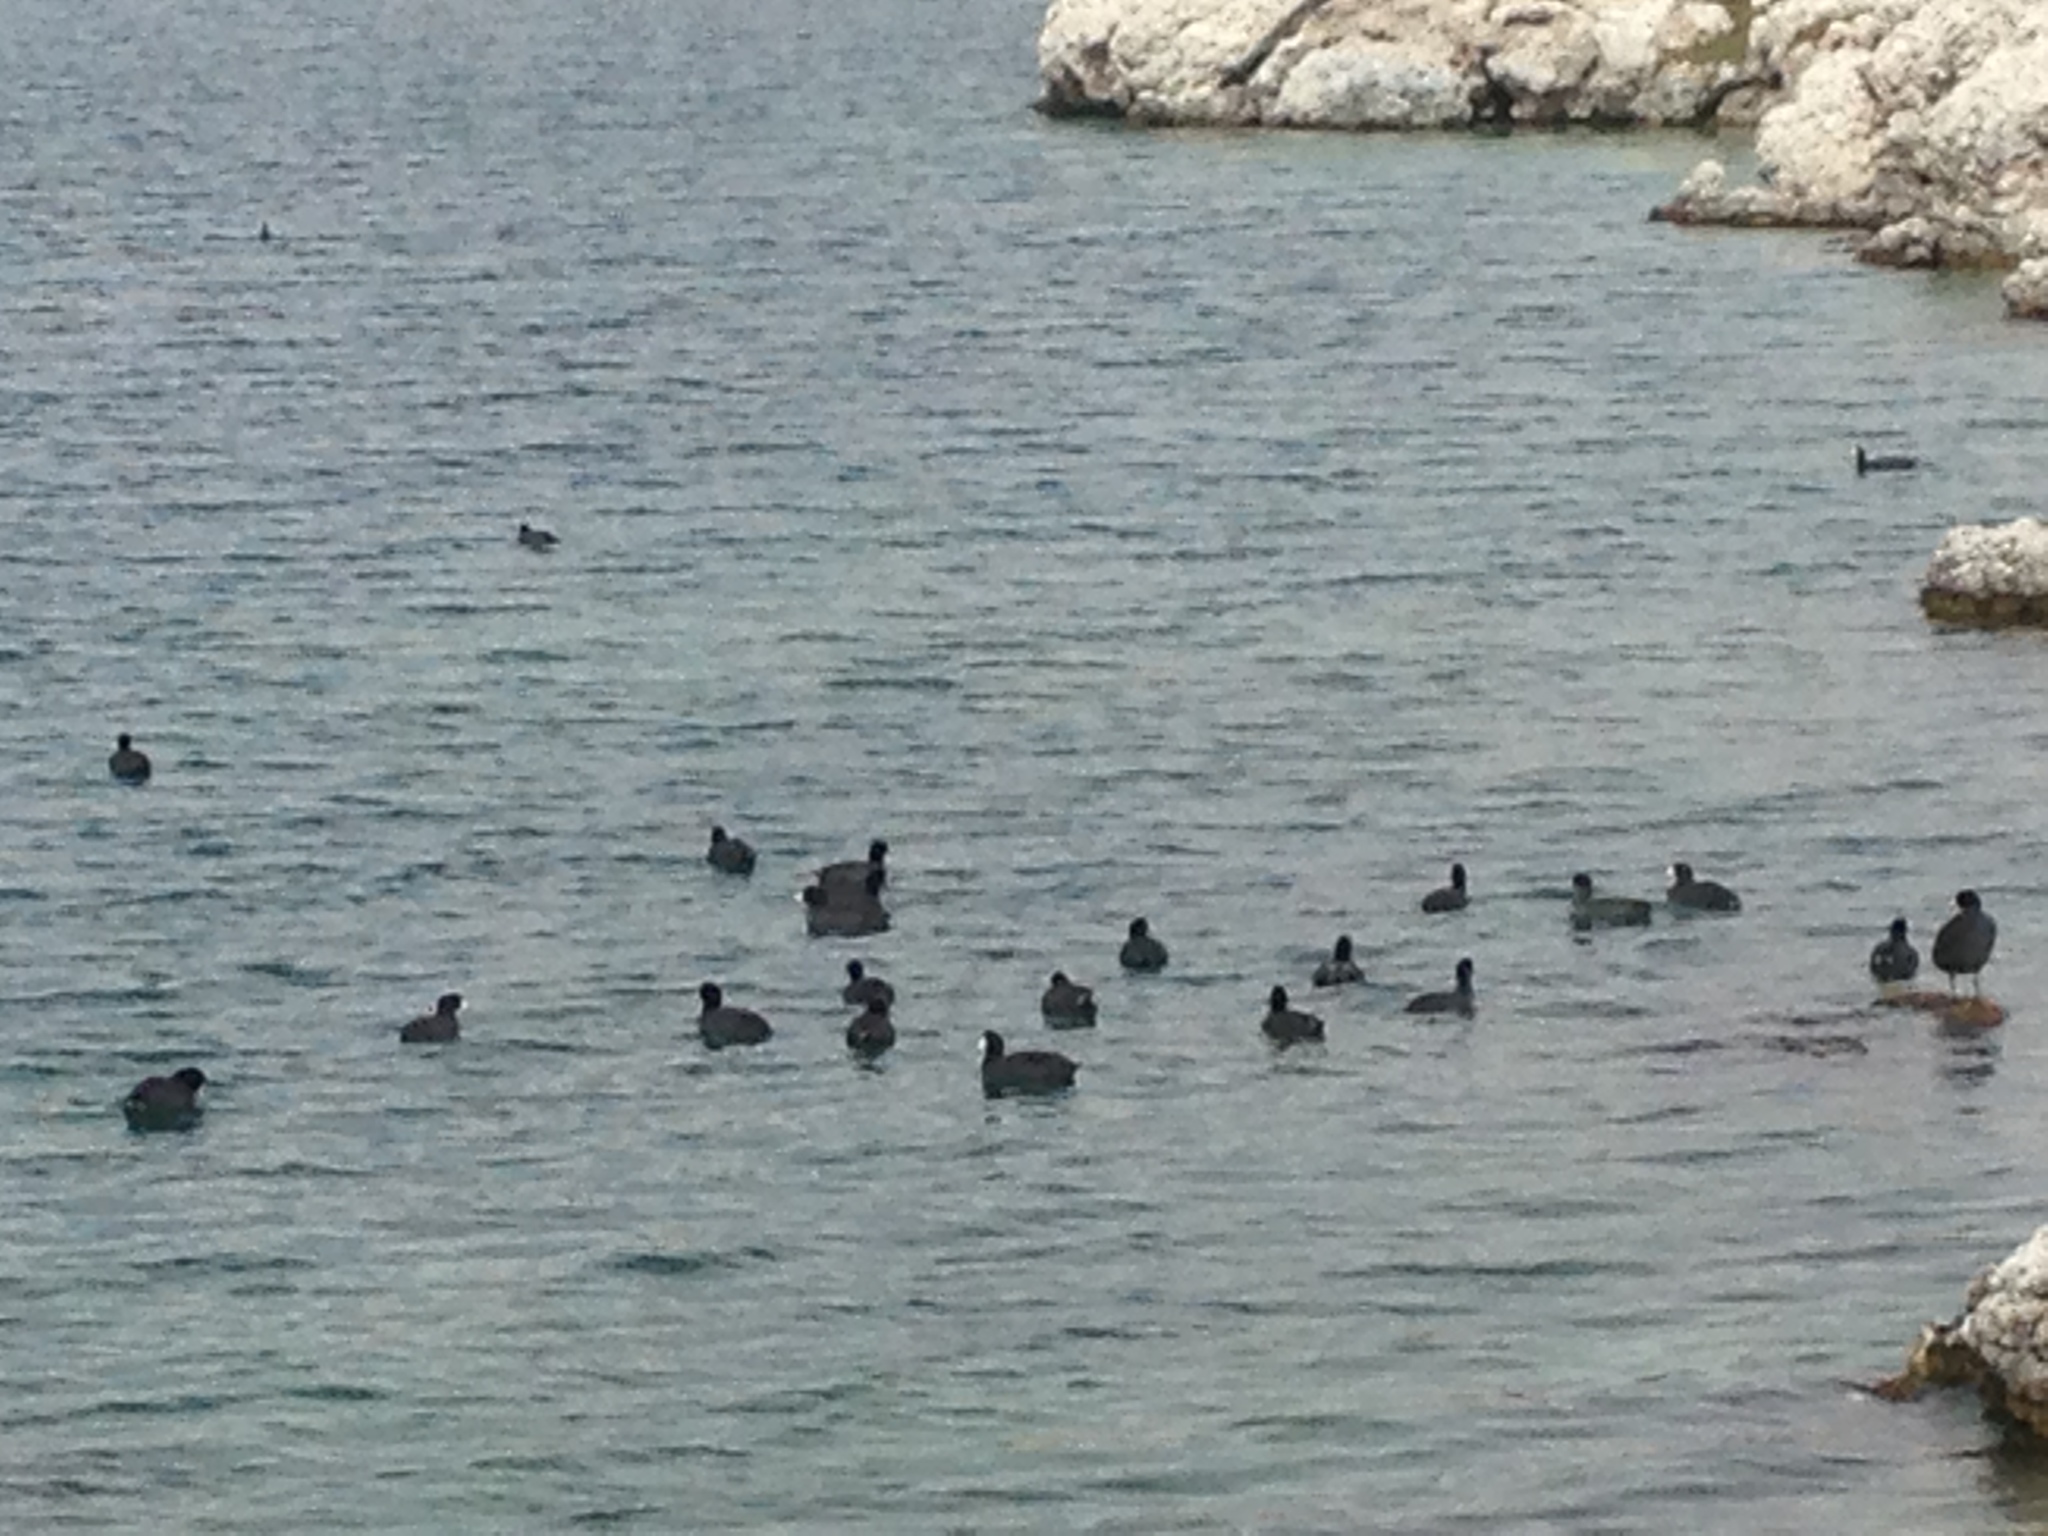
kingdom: Animalia
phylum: Chordata
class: Aves
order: Gruiformes
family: Rallidae
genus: Fulica
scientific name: Fulica americana
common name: American coot
